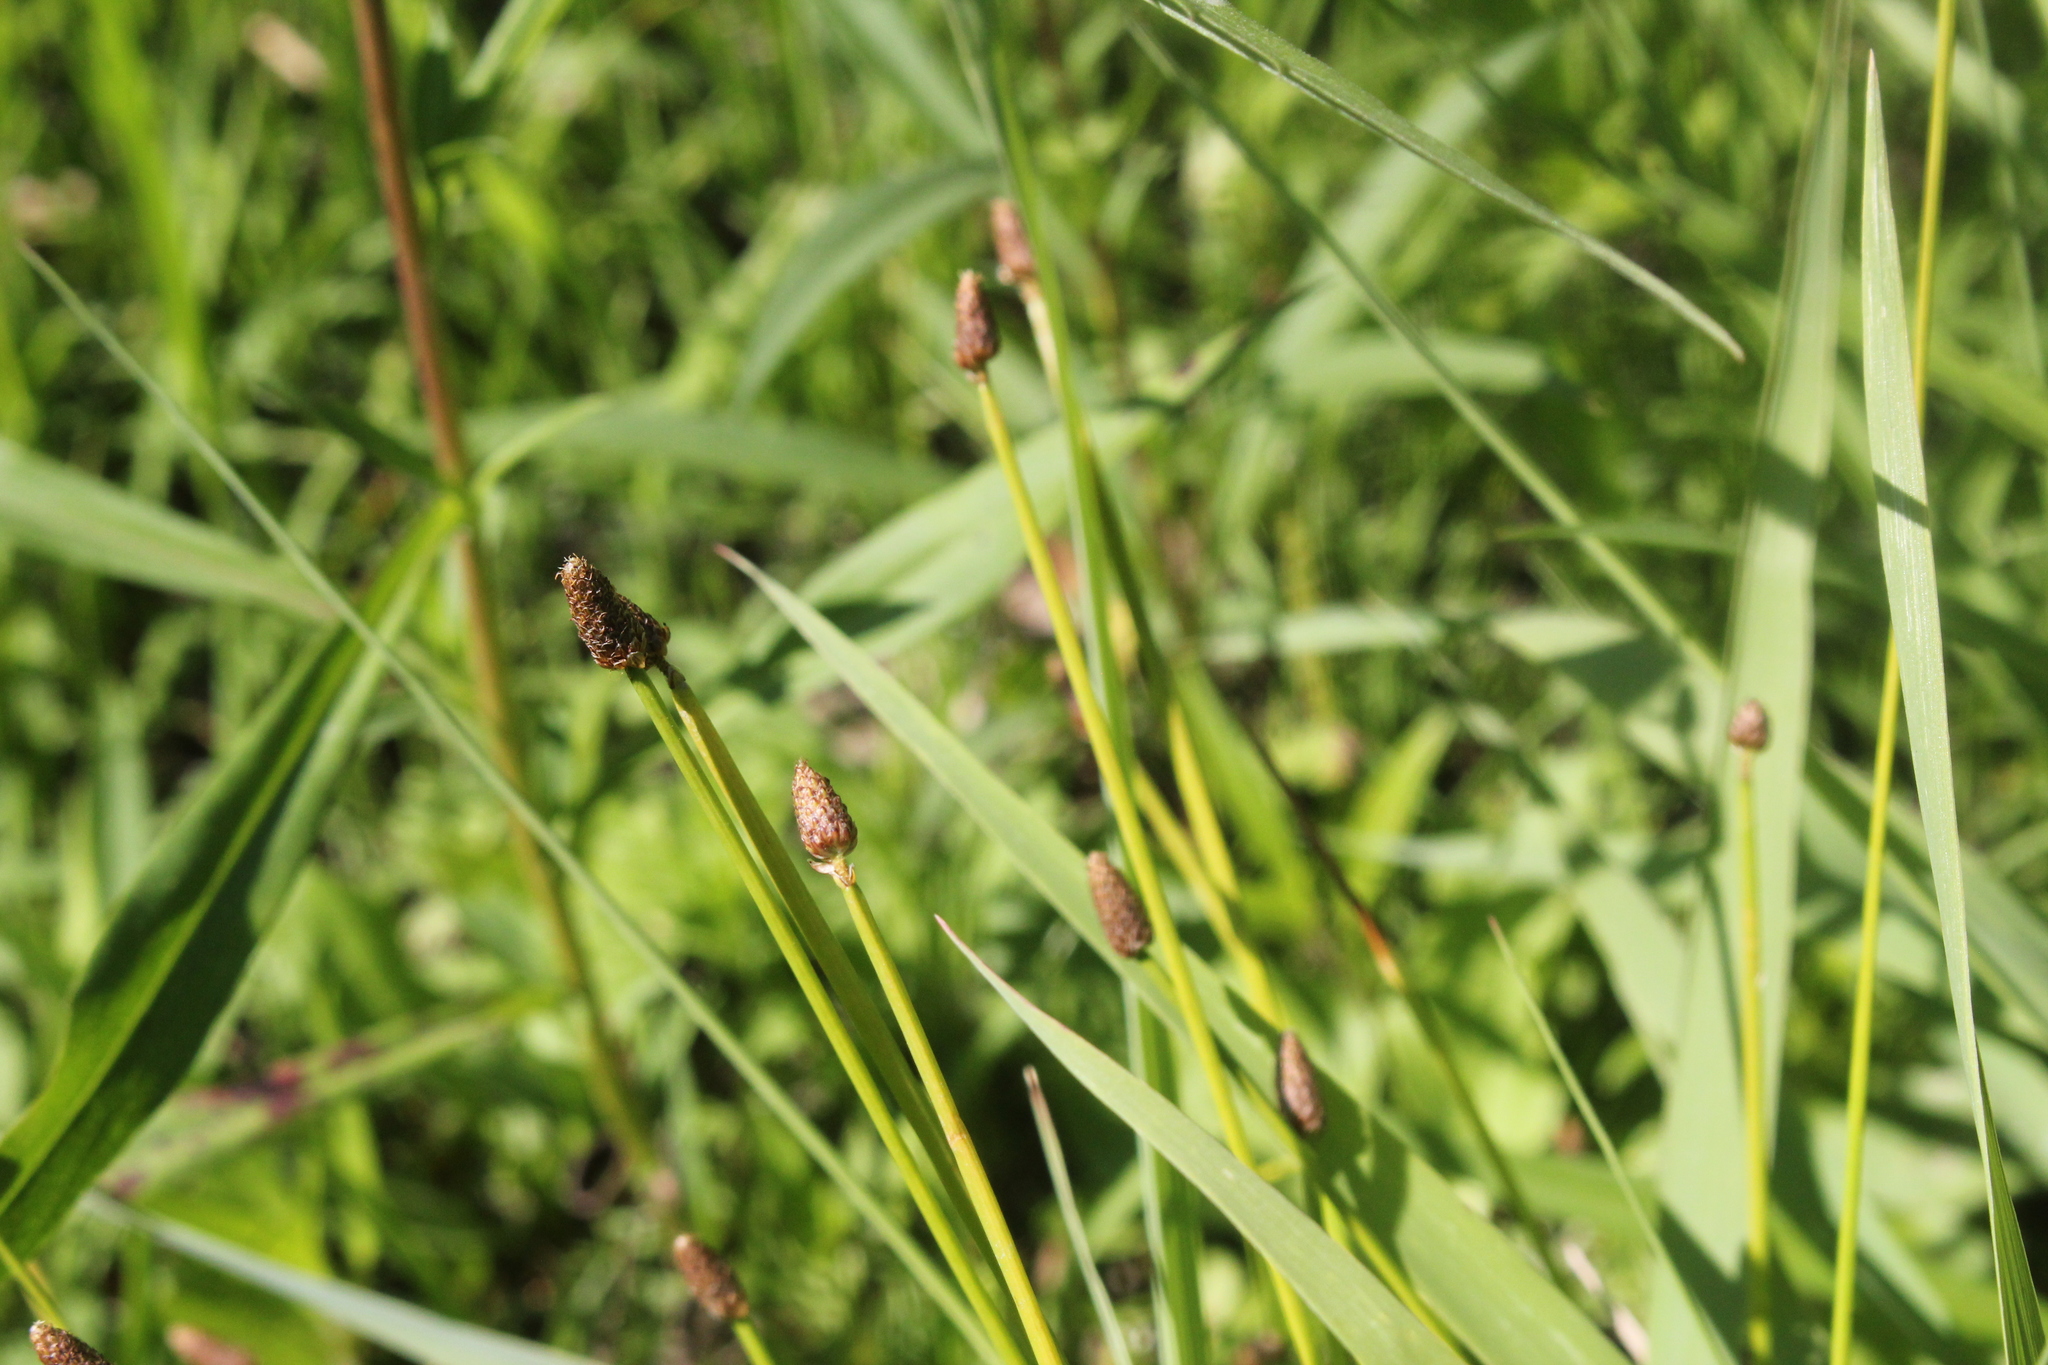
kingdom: Plantae
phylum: Tracheophyta
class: Liliopsida
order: Poales
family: Cyperaceae
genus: Eleocharis
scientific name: Eleocharis obtusa
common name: Blunt spikerush
